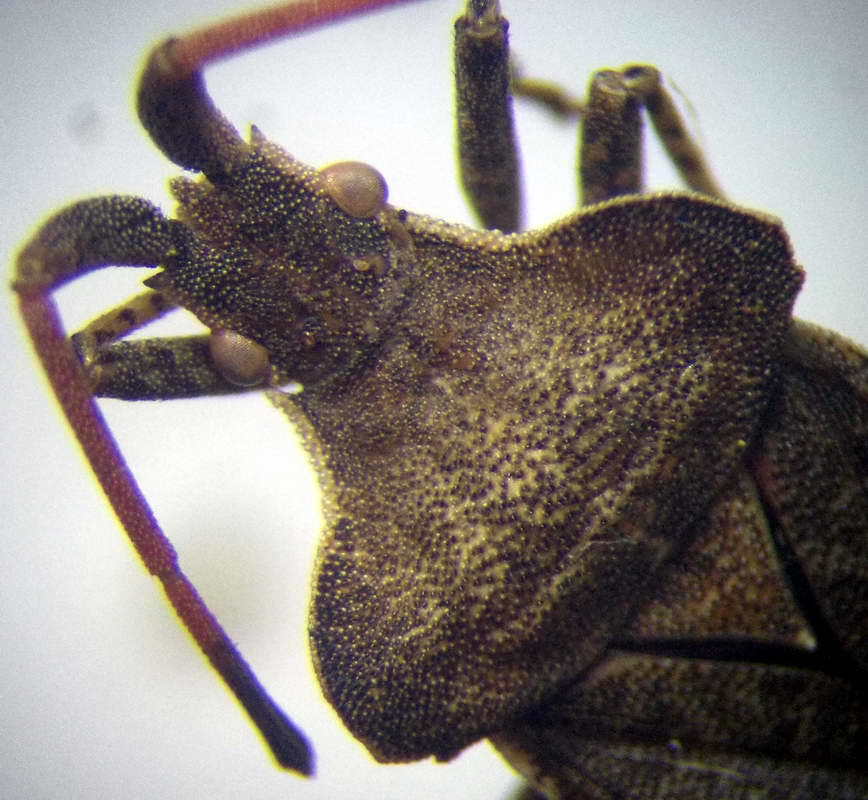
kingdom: Animalia
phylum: Arthropoda
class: Insecta
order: Hemiptera
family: Coreidae
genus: Enoplops
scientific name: Enoplops scapha
